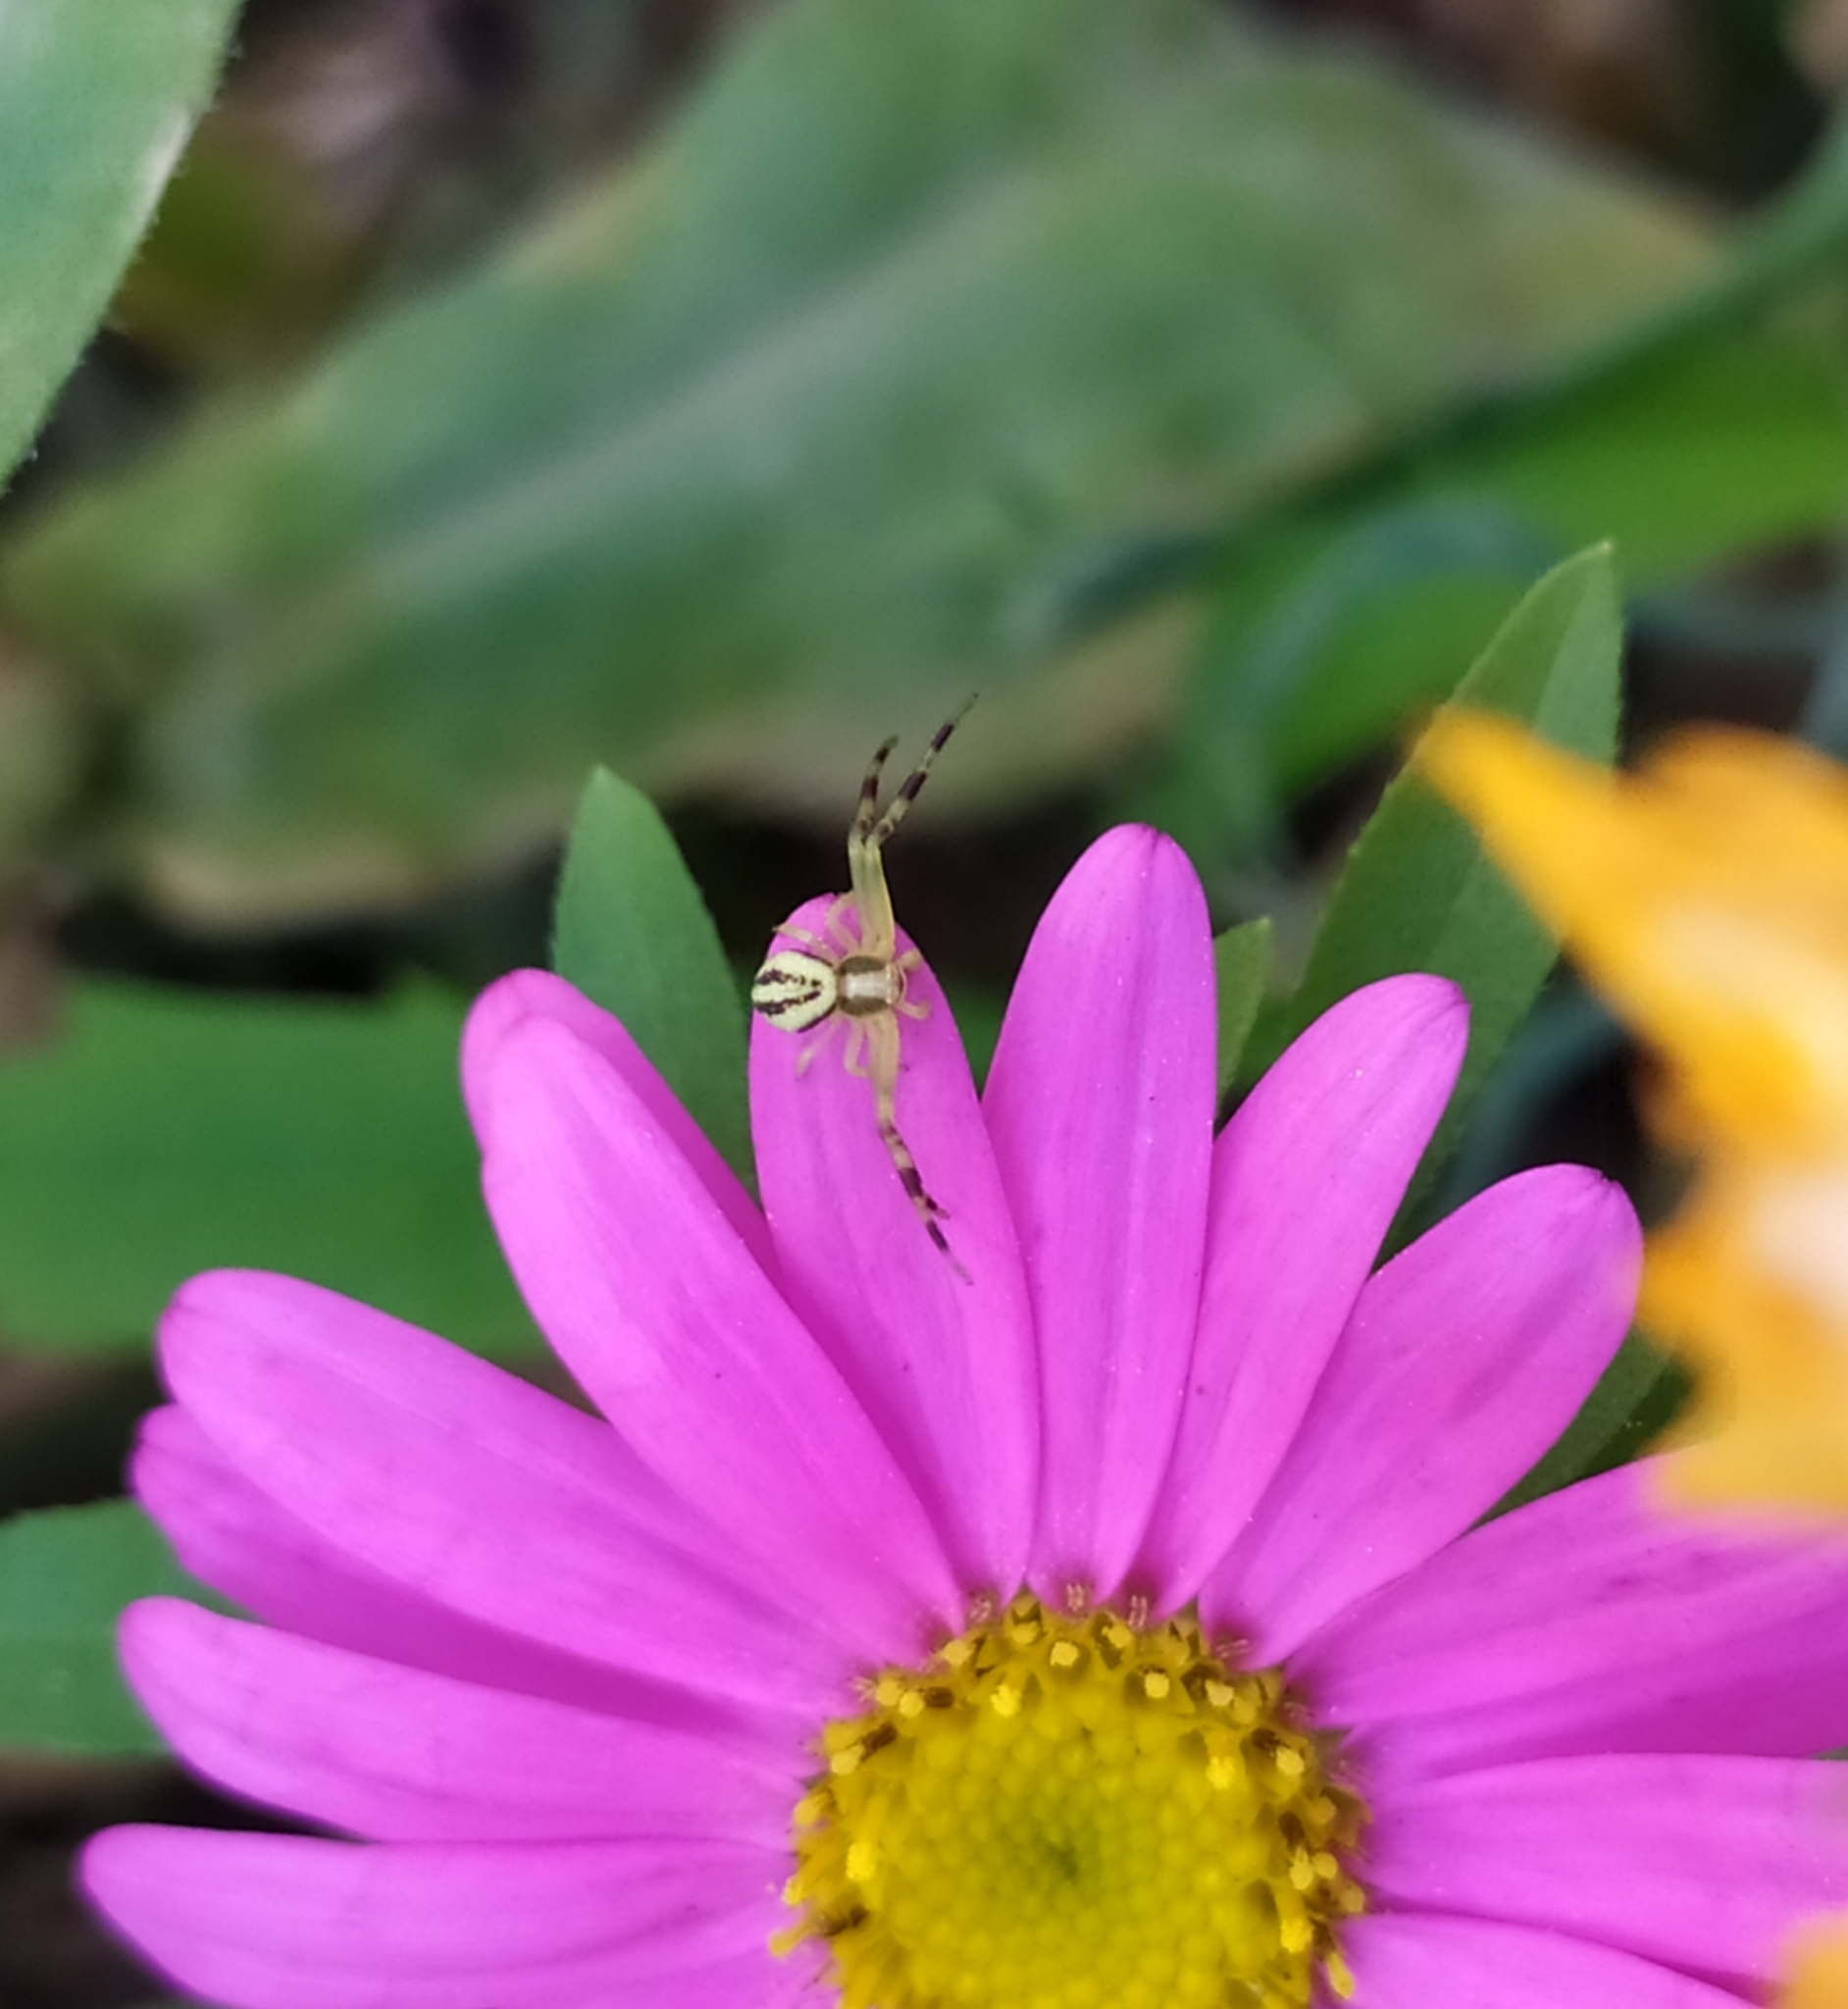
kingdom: Animalia
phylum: Arthropoda
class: Arachnida
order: Araneae
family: Thomisidae
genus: Misumena
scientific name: Misumena vatia
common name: Goldenrod crab spider
